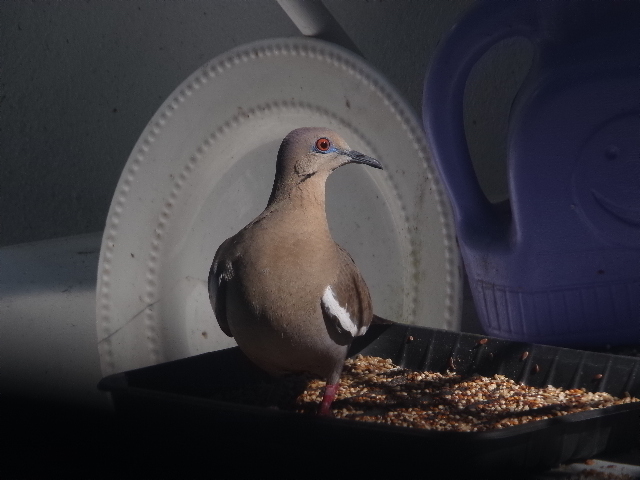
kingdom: Animalia
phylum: Chordata
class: Aves
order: Columbiformes
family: Columbidae
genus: Zenaida
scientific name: Zenaida asiatica
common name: White-winged dove
